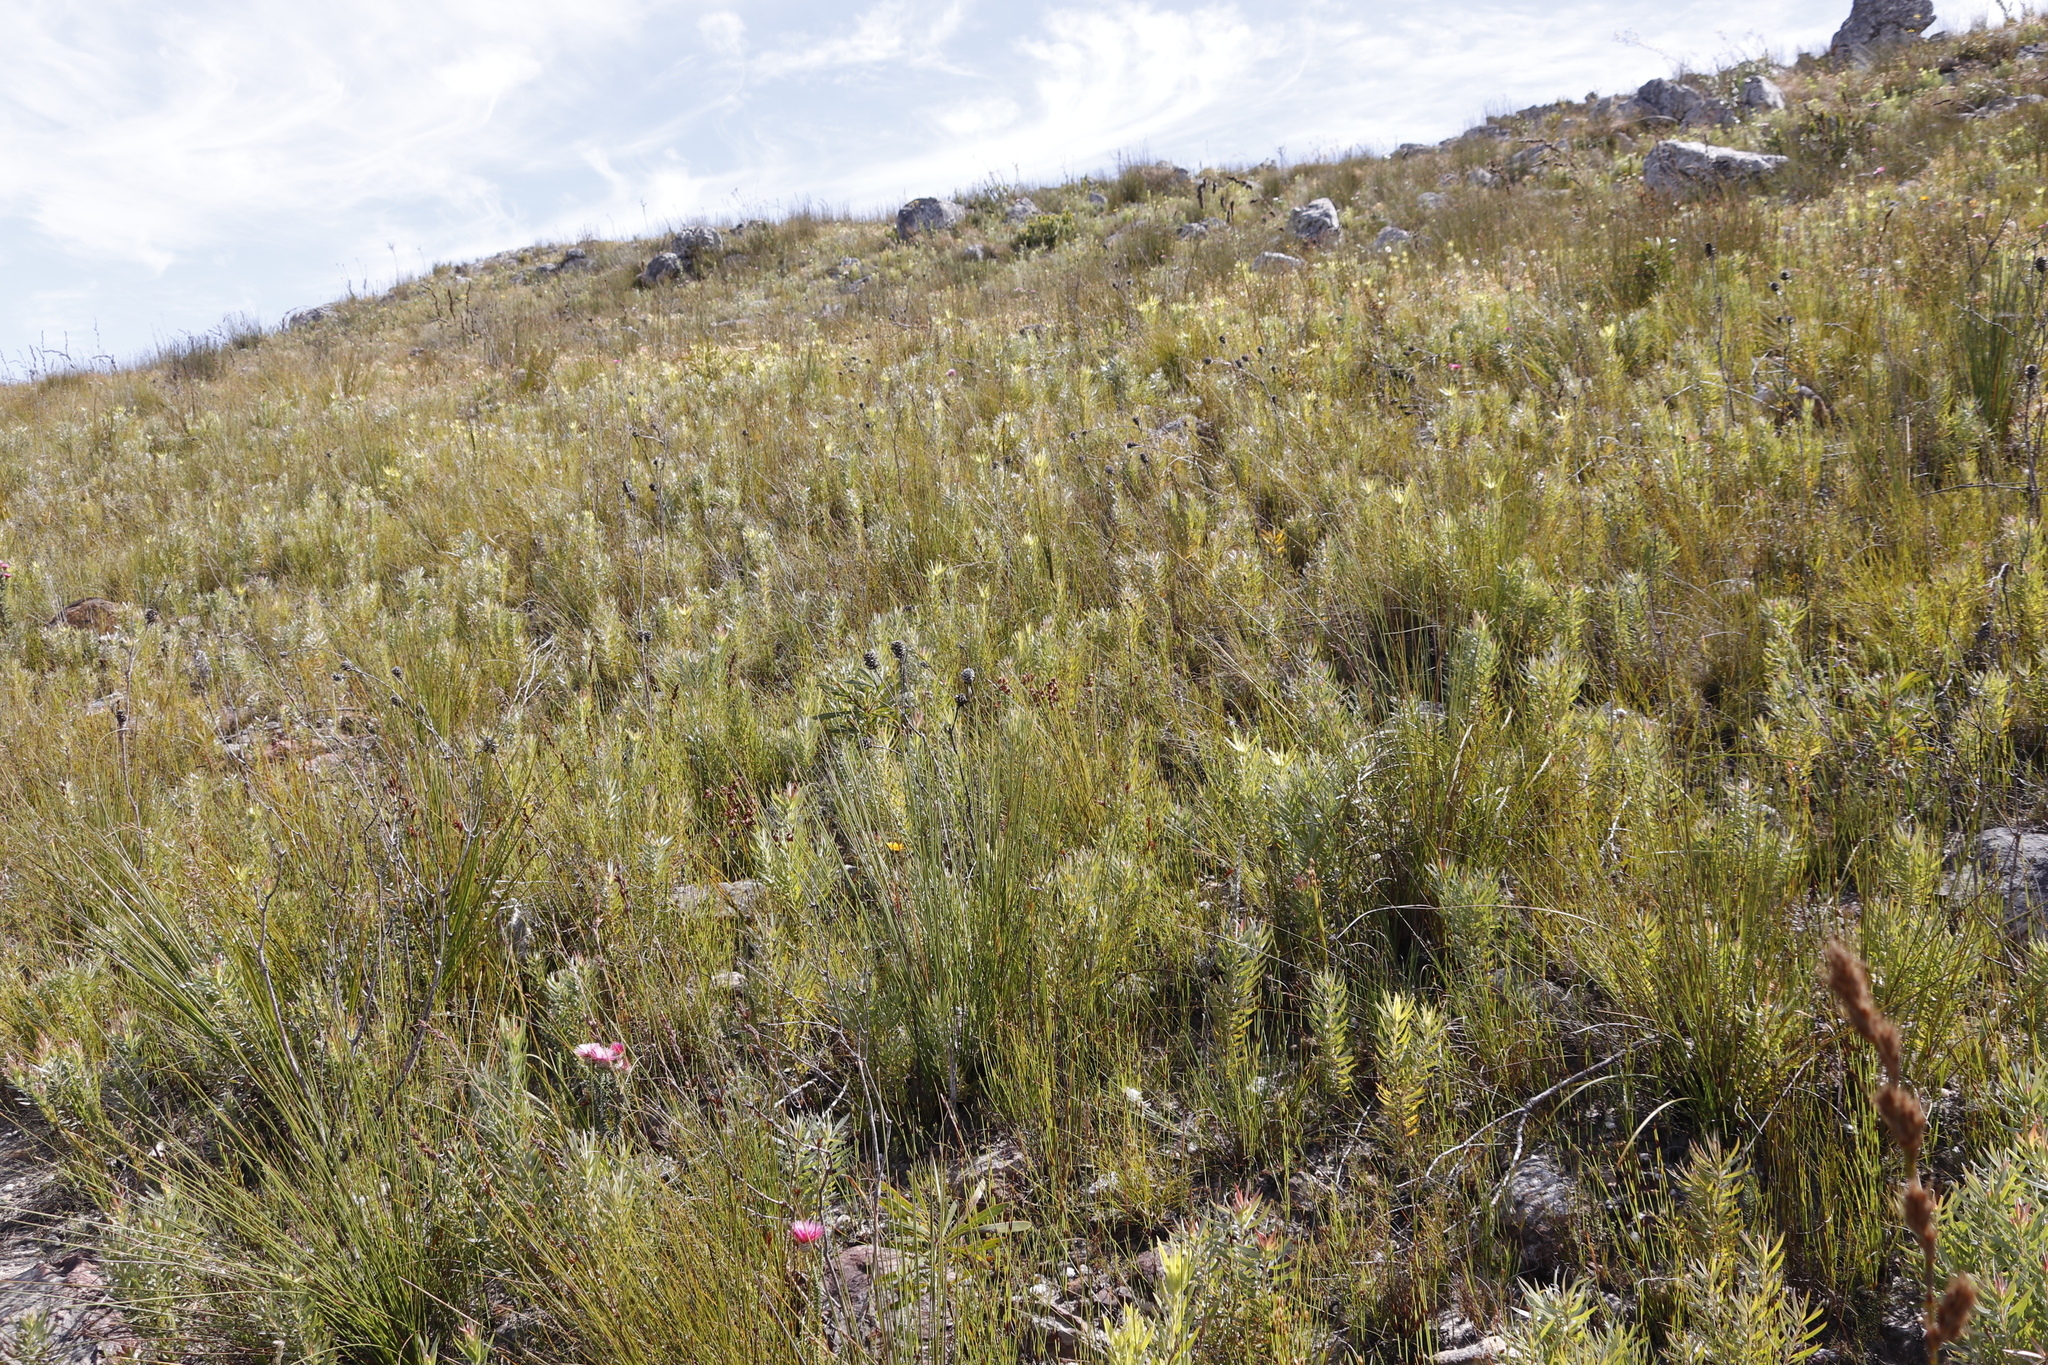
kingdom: Plantae
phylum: Tracheophyta
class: Magnoliopsida
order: Proteales
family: Proteaceae
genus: Leucadendron
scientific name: Leucadendron xanthoconus
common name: Sickle-leaf conebush
